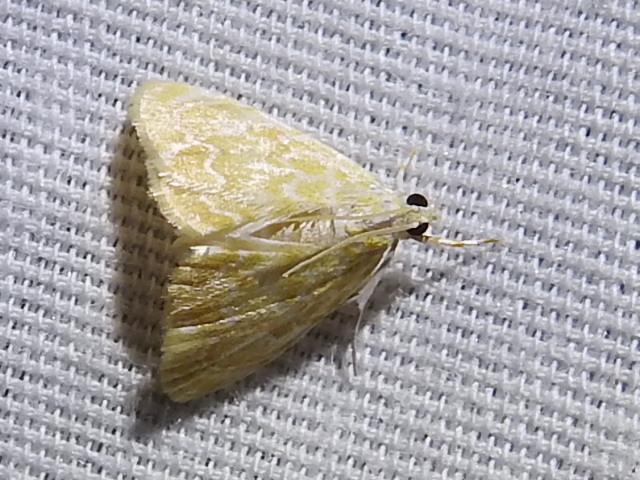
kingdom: Animalia
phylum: Arthropoda
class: Insecta
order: Lepidoptera
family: Crambidae
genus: Glaphyria
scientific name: Glaphyria sesquistrialis
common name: White-roped glaphyria
